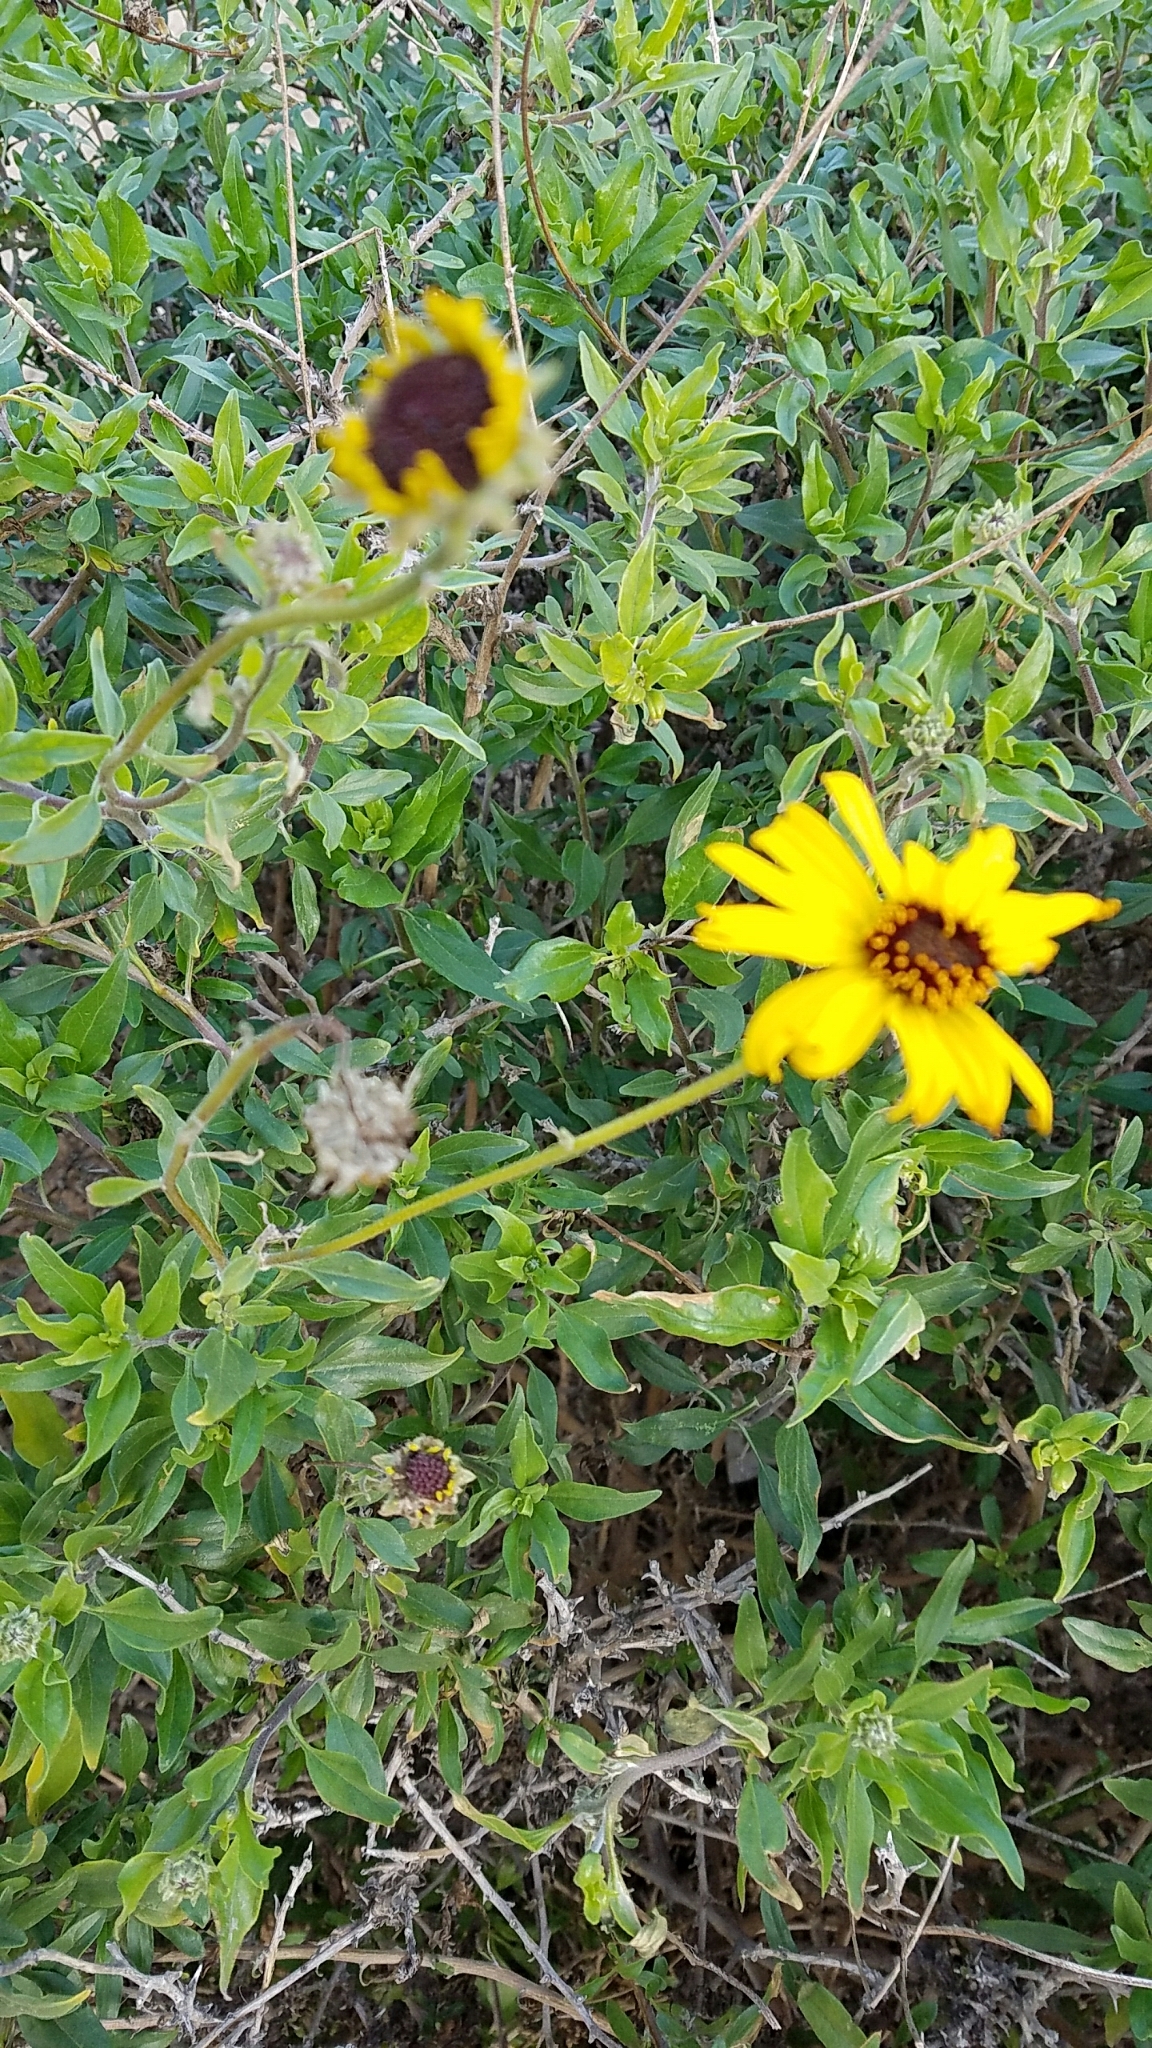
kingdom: Plantae
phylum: Tracheophyta
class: Magnoliopsida
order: Asterales
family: Asteraceae
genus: Encelia
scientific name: Encelia californica
